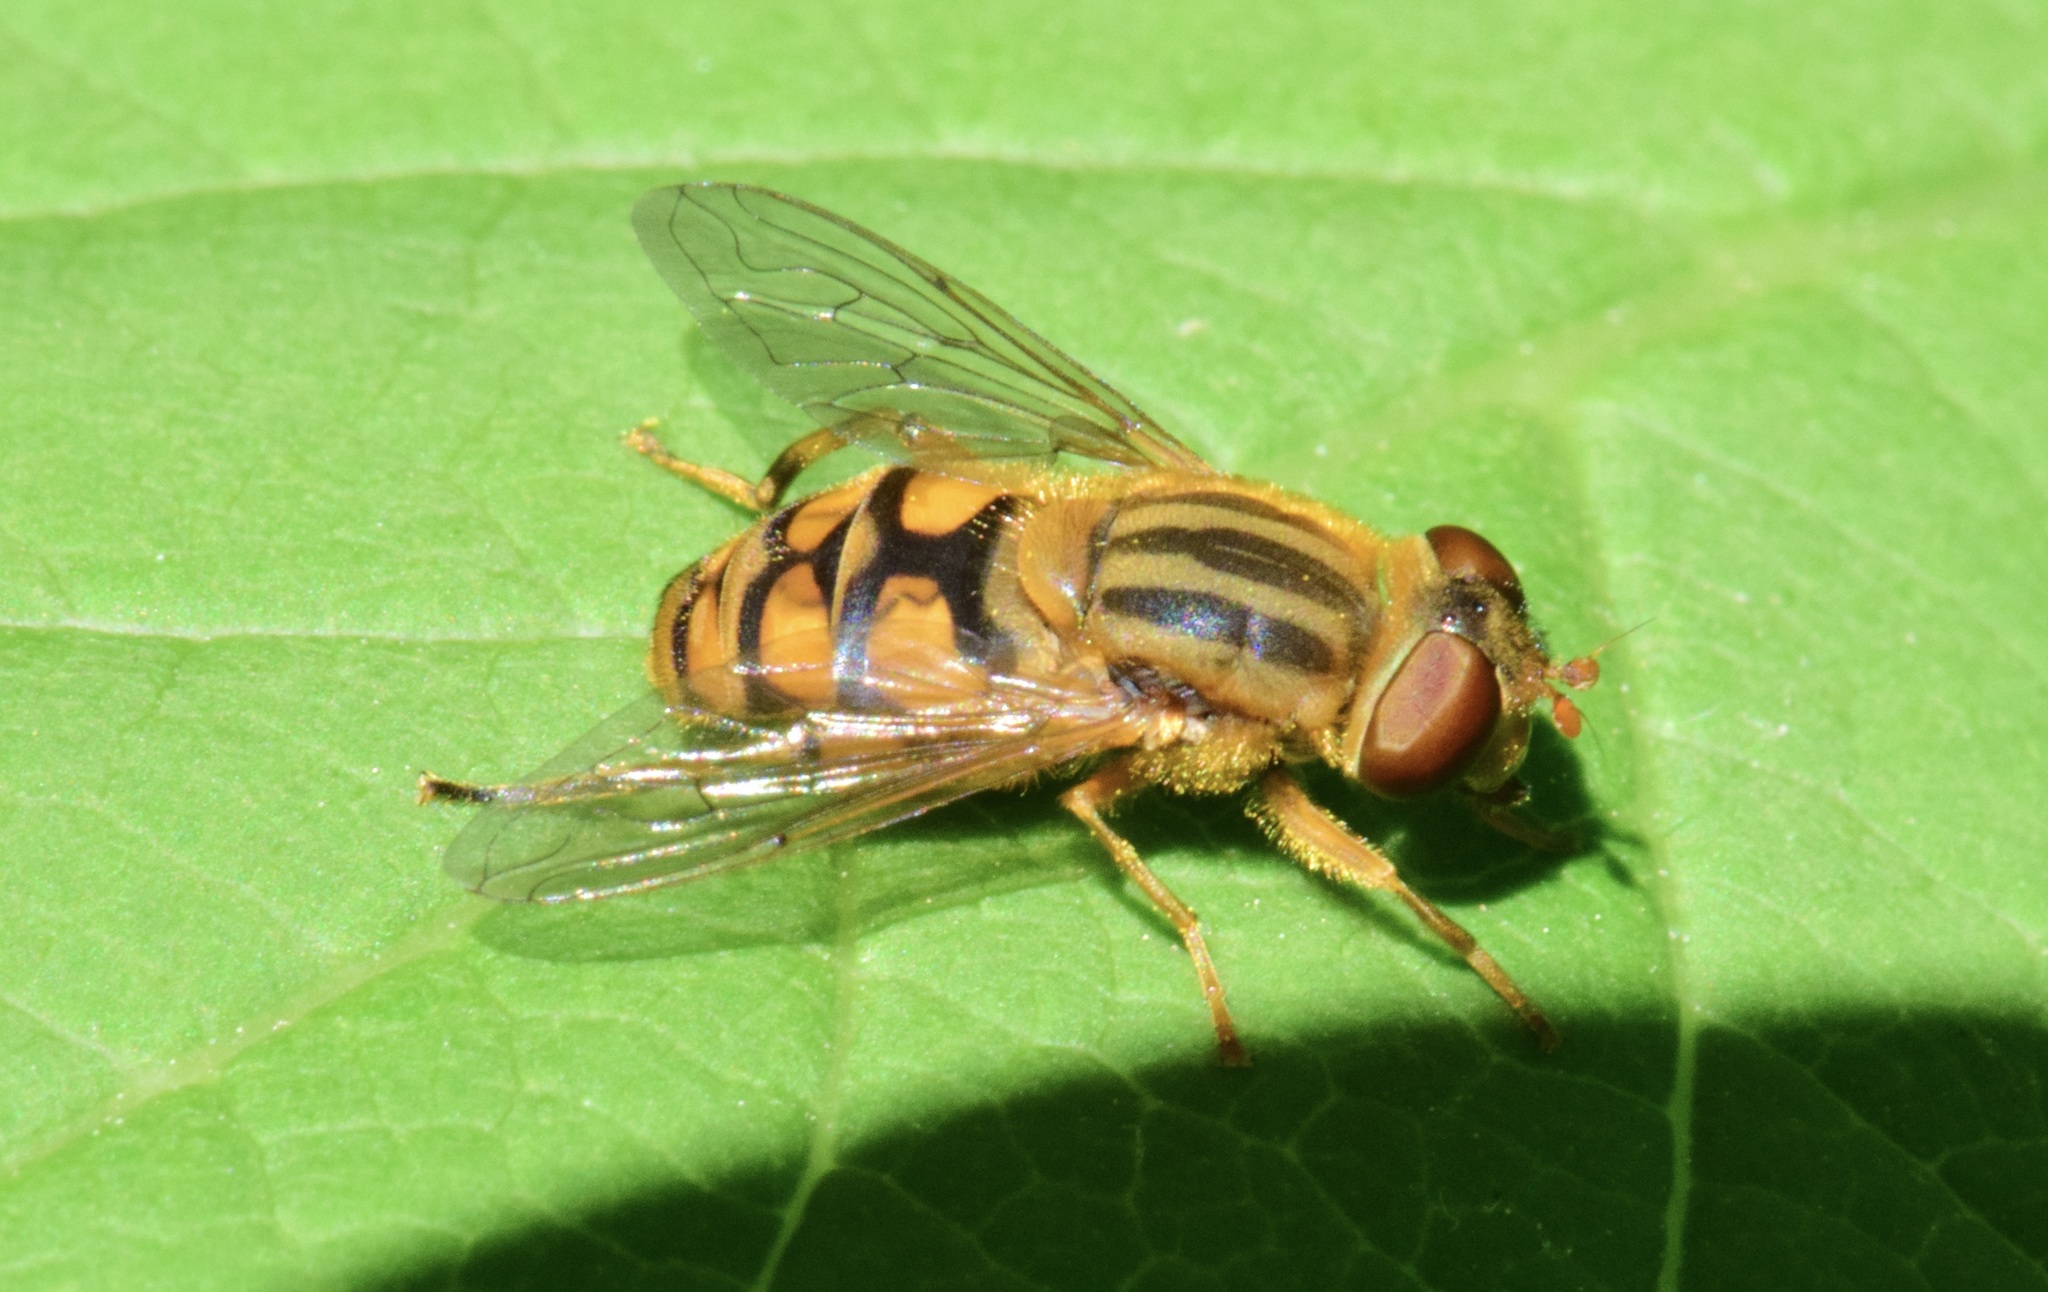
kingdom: Animalia
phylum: Arthropoda
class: Insecta
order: Diptera
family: Syrphidae
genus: Parhelophilus
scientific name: Parhelophilus laetus
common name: Common bog fly
